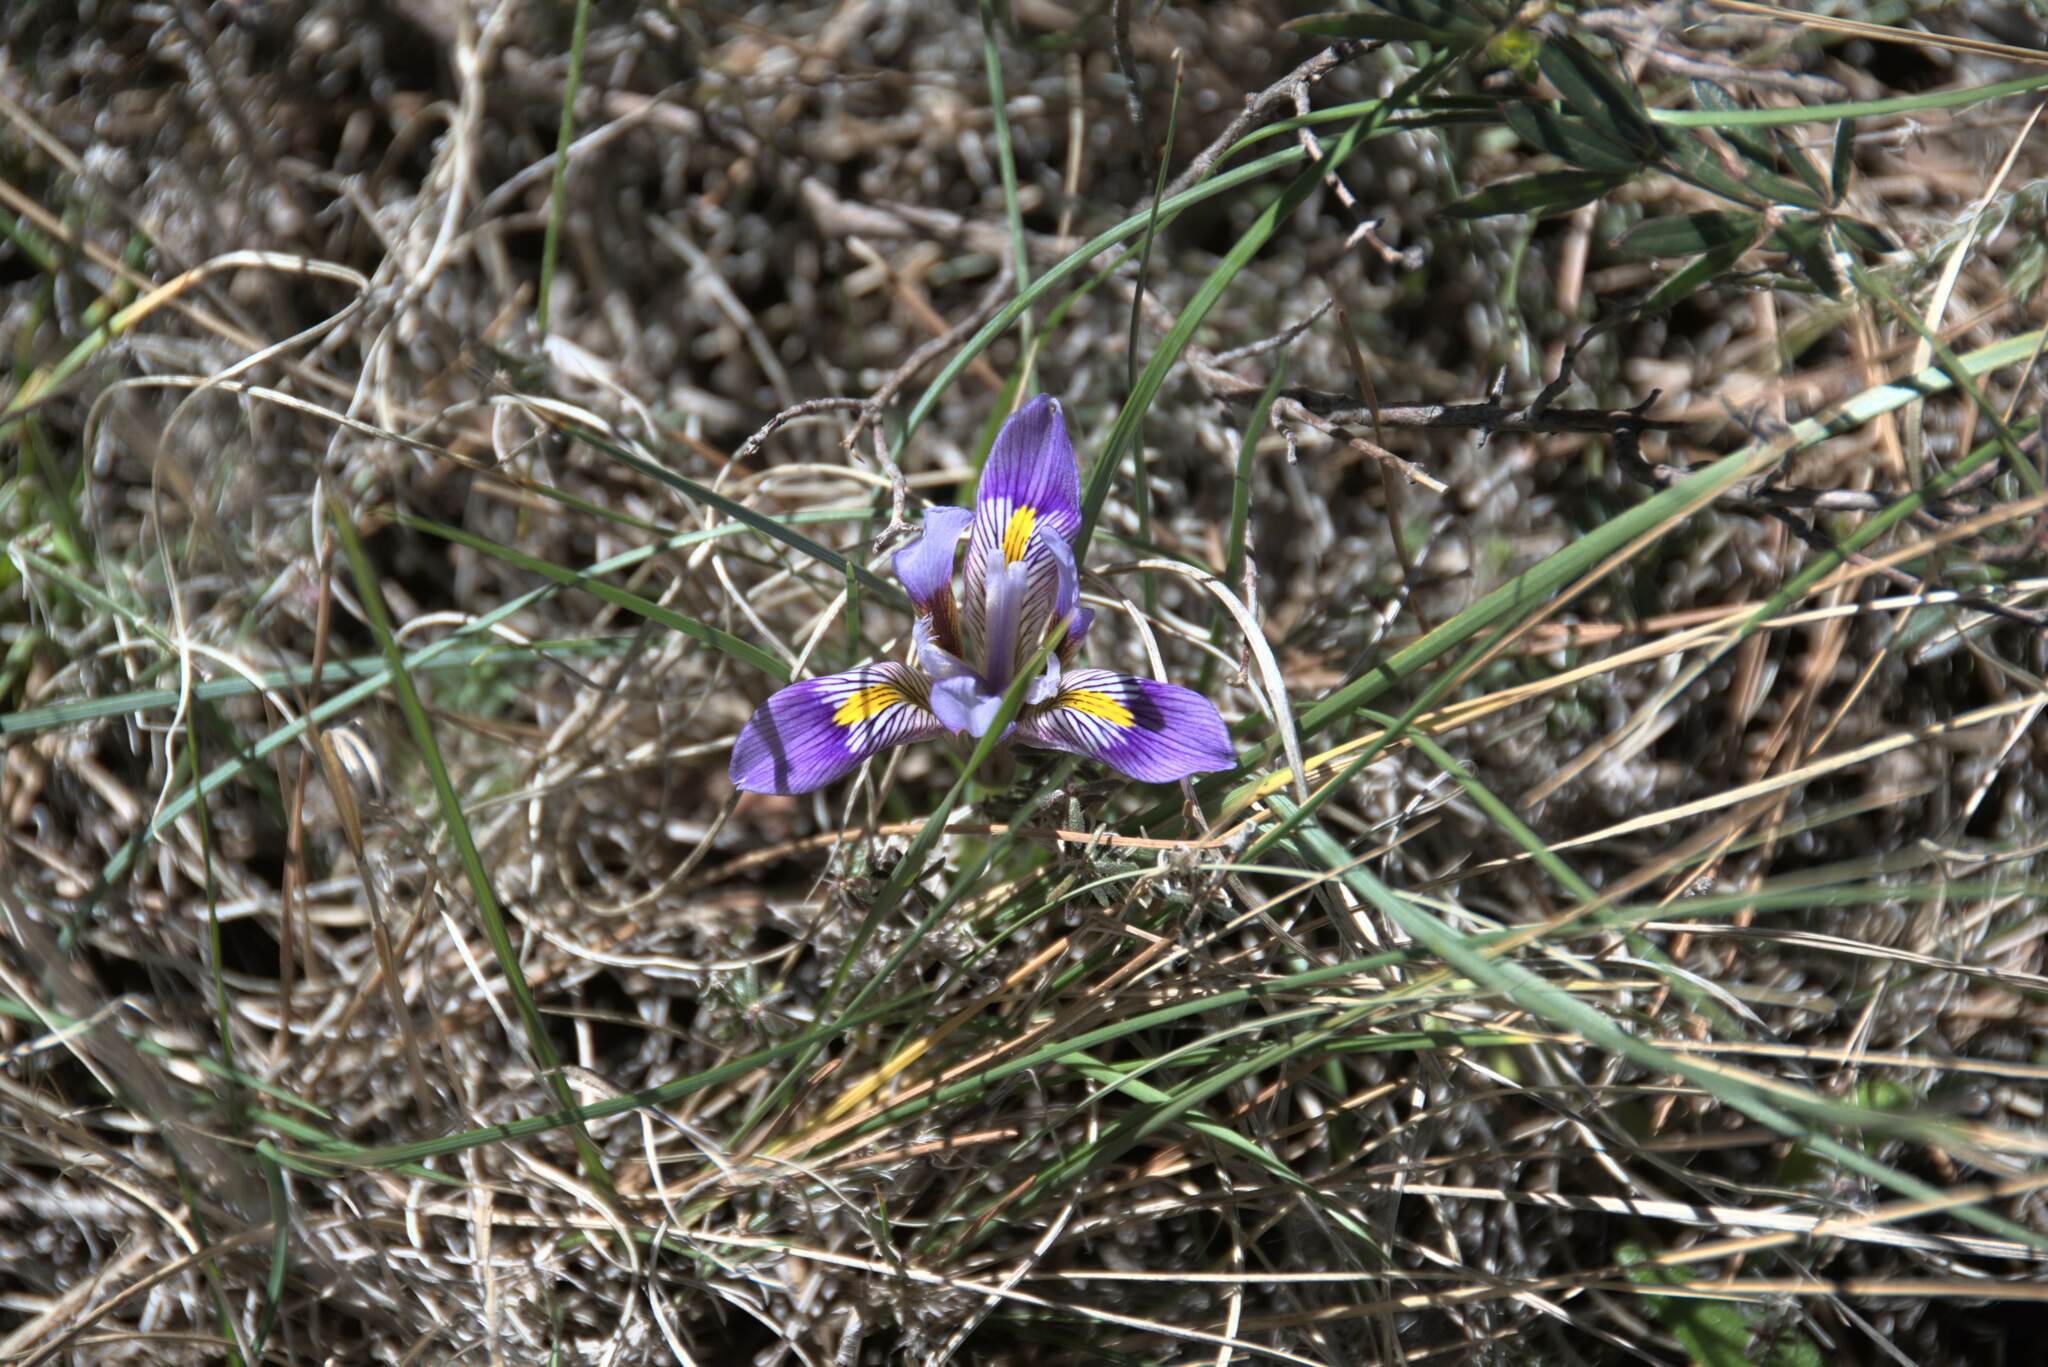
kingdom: Plantae
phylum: Tracheophyta
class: Liliopsida
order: Asparagales
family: Iridaceae
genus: Iris
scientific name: Iris unguicularis
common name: Algerian iris
